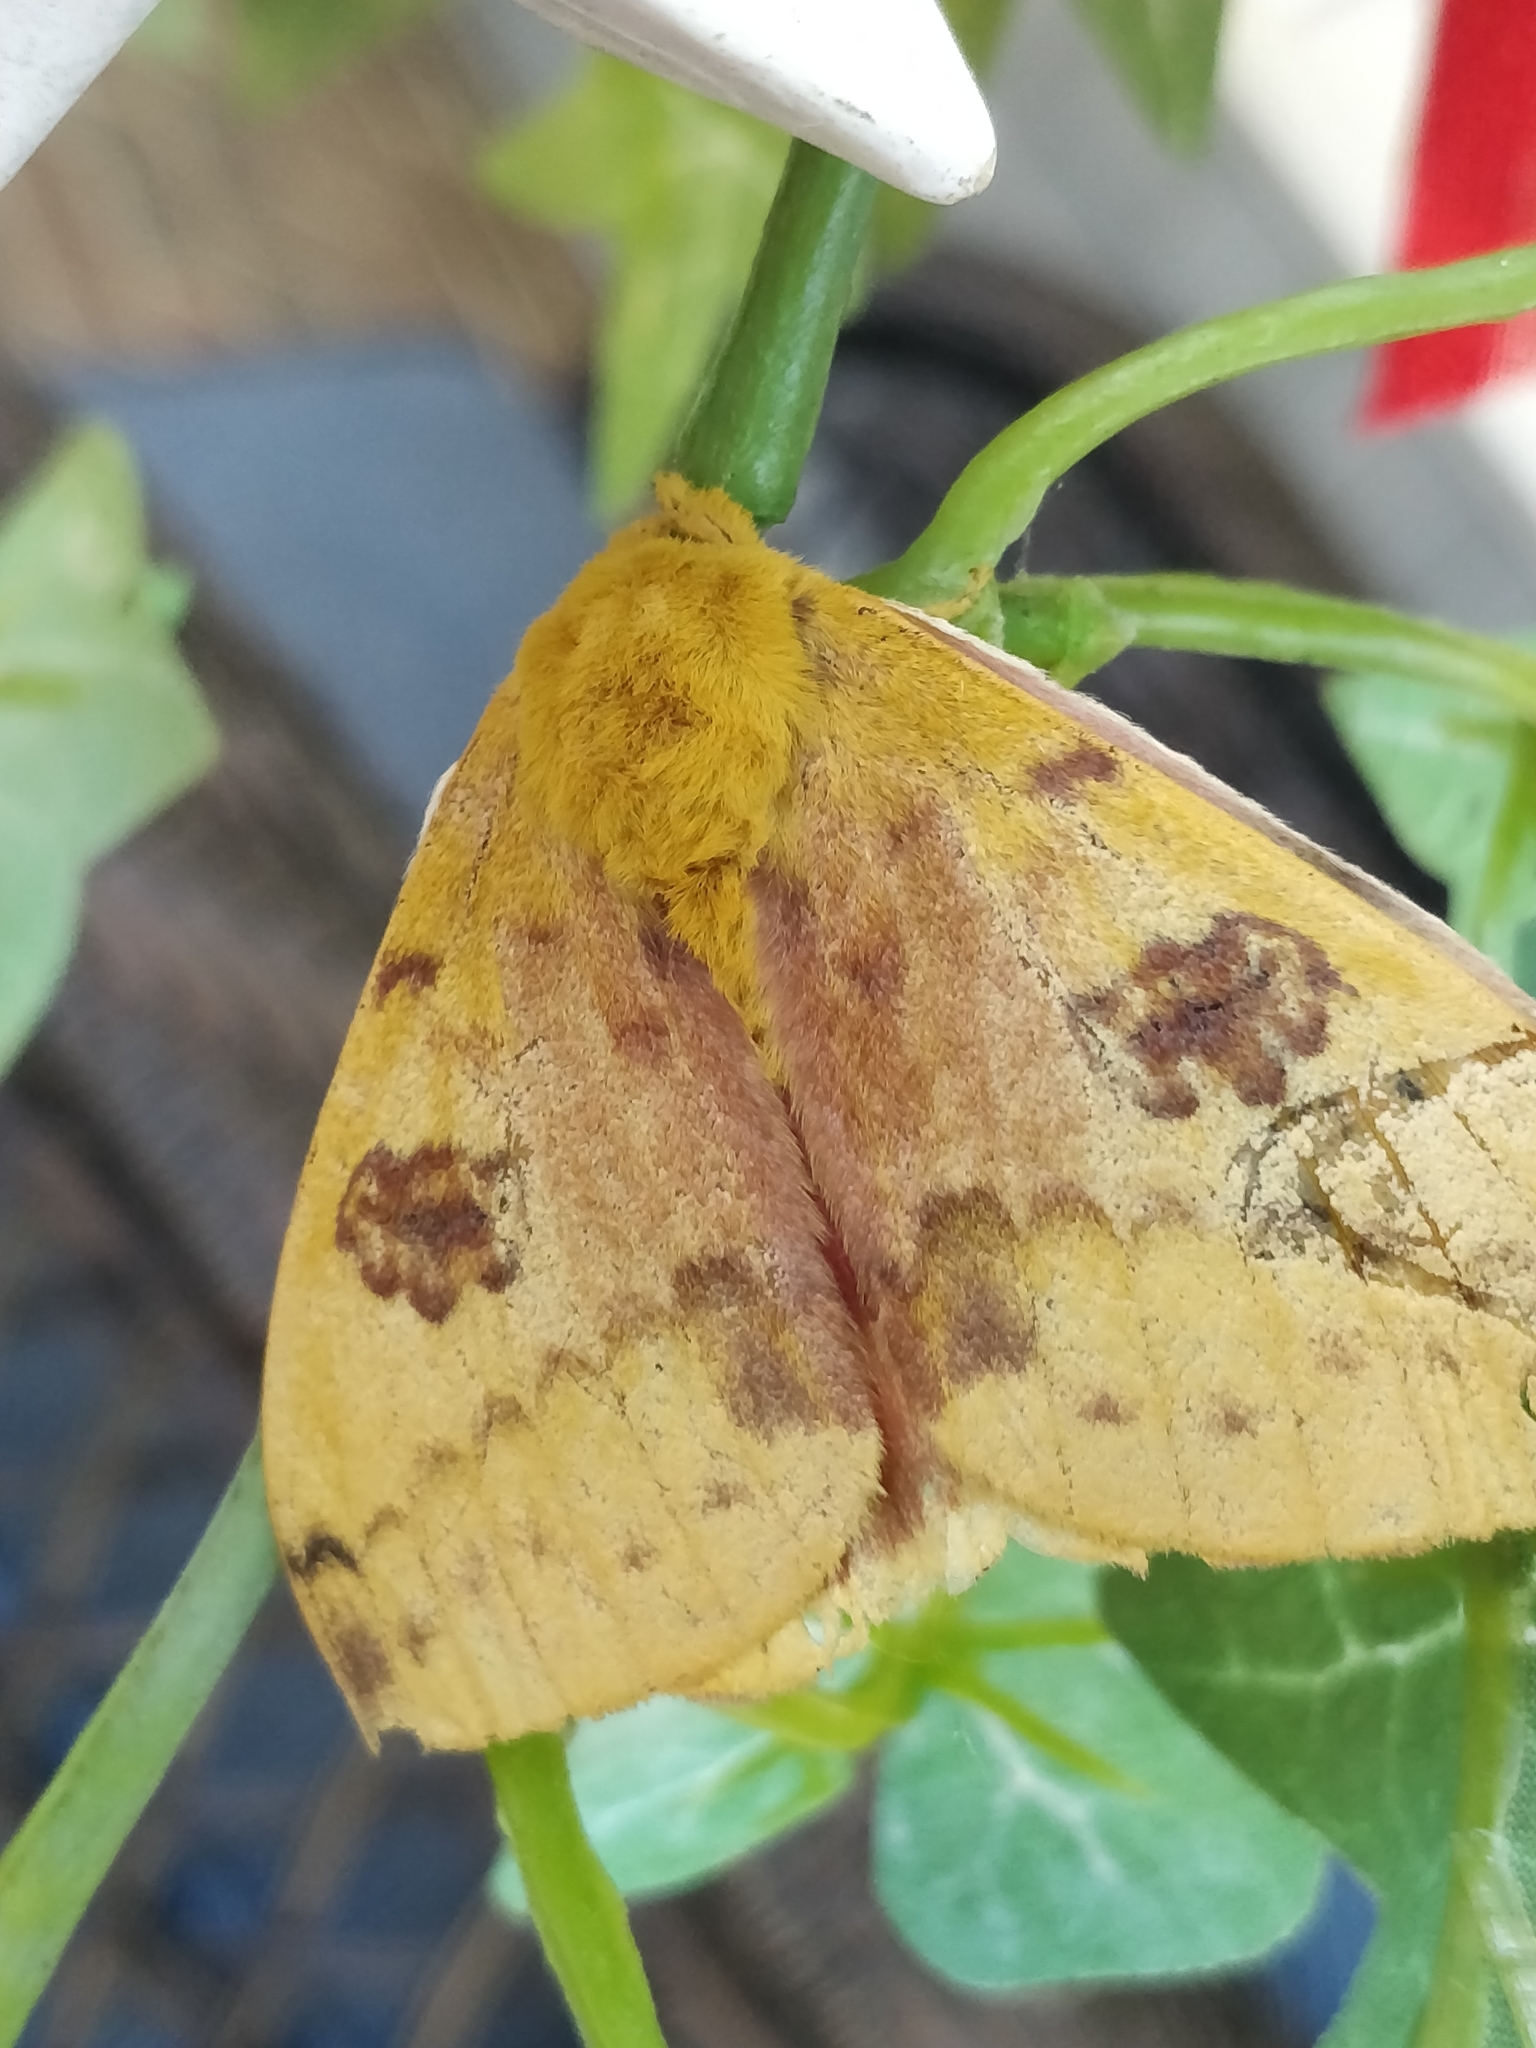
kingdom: Animalia
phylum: Arthropoda
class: Insecta
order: Lepidoptera
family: Saturniidae
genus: Automeris
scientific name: Automeris io
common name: Io moth
